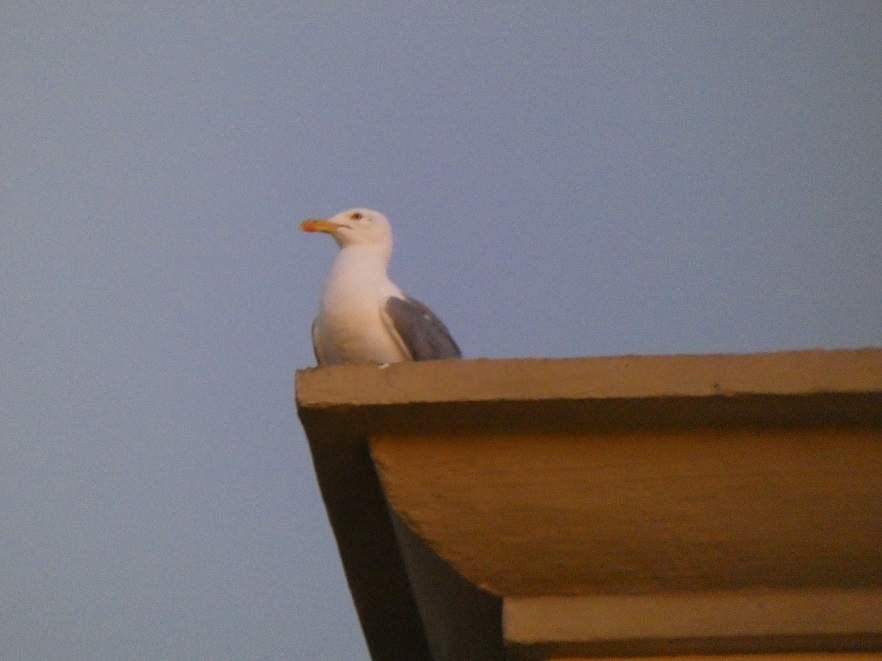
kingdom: Animalia
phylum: Chordata
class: Aves
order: Charadriiformes
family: Laridae
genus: Larus
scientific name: Larus michahellis
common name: Yellow-legged gull
